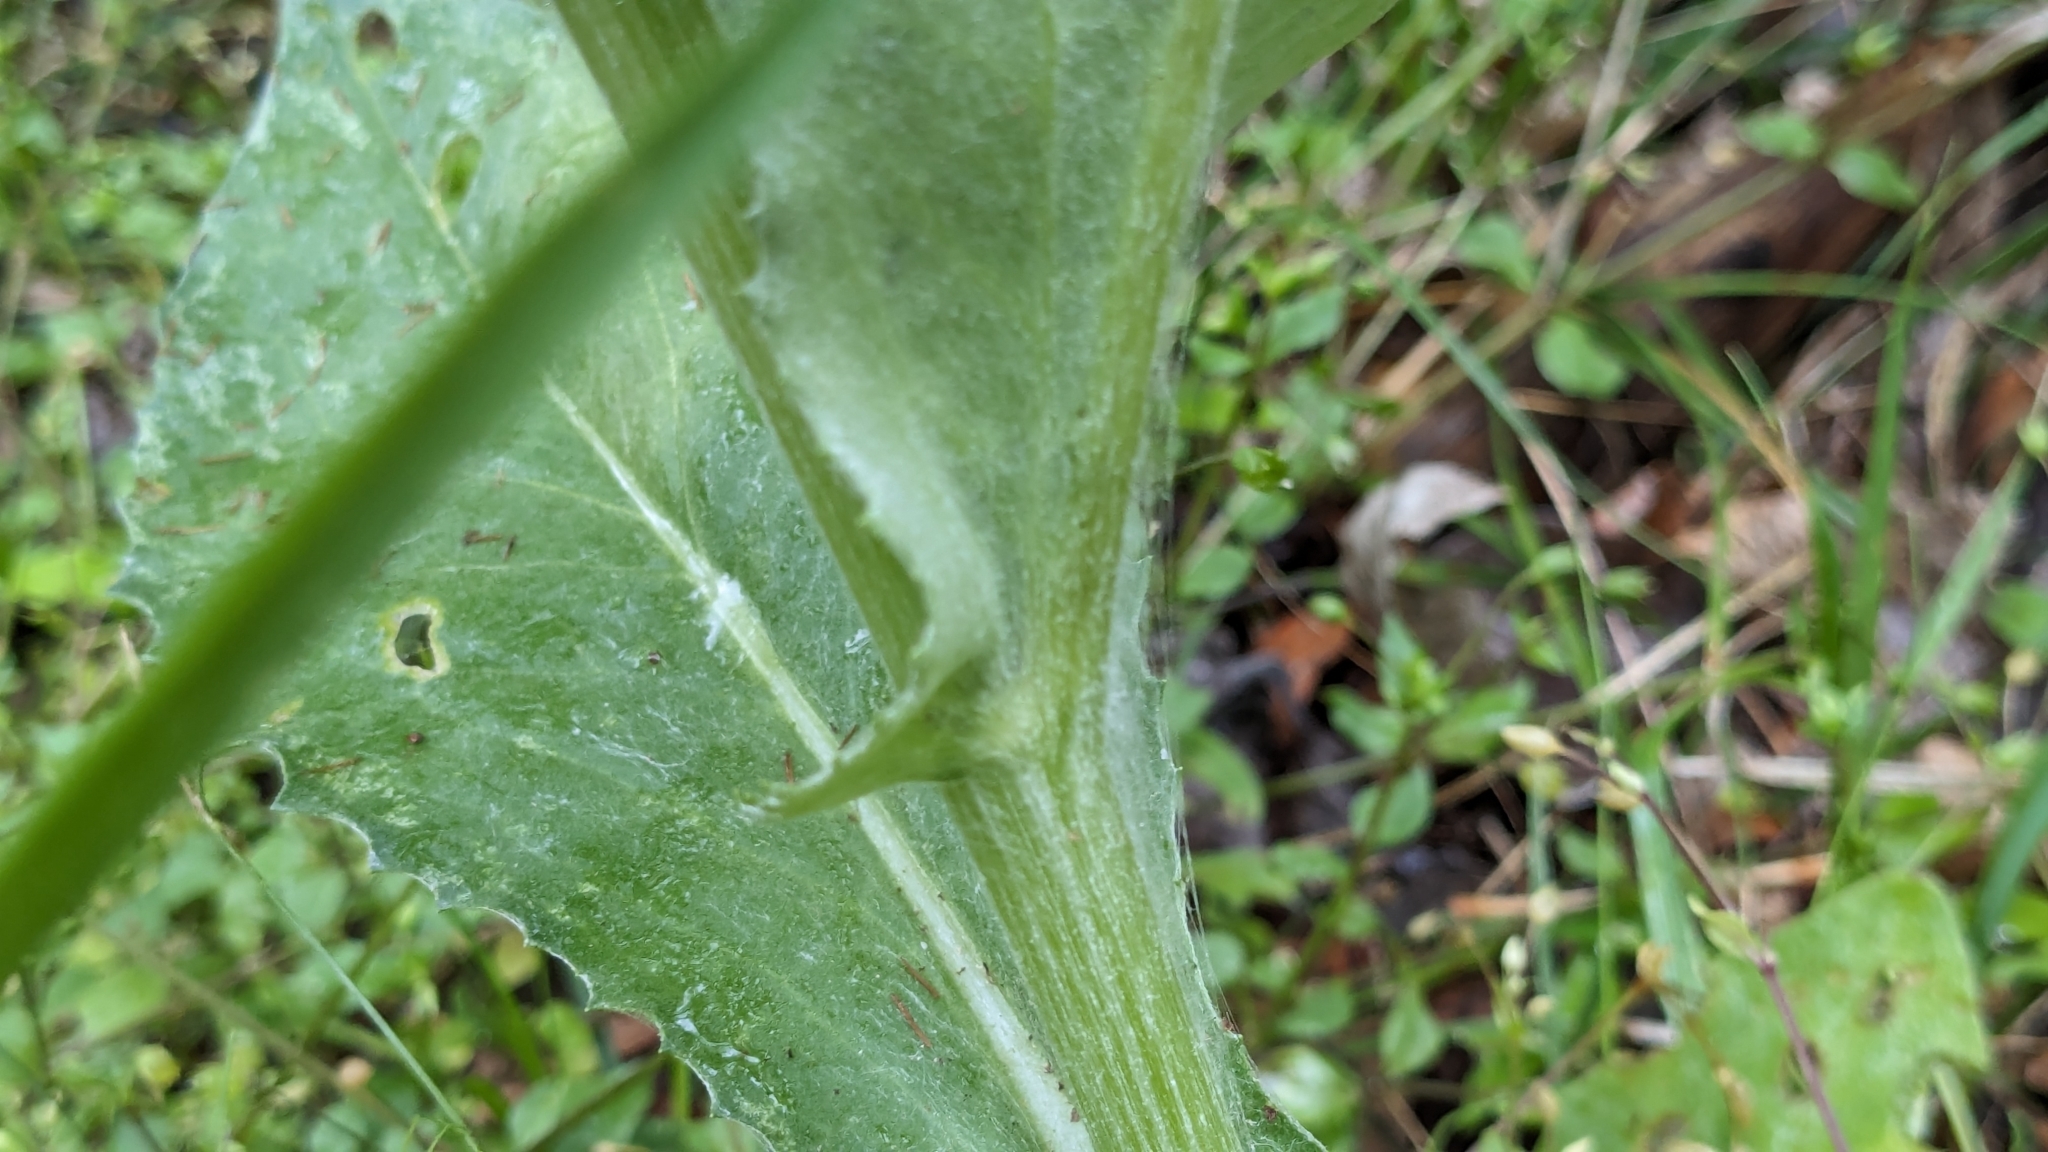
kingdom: Plantae
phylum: Tracheophyta
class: Magnoliopsida
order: Asterales
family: Asteraceae
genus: Senecio
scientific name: Senecio ampullaceus
